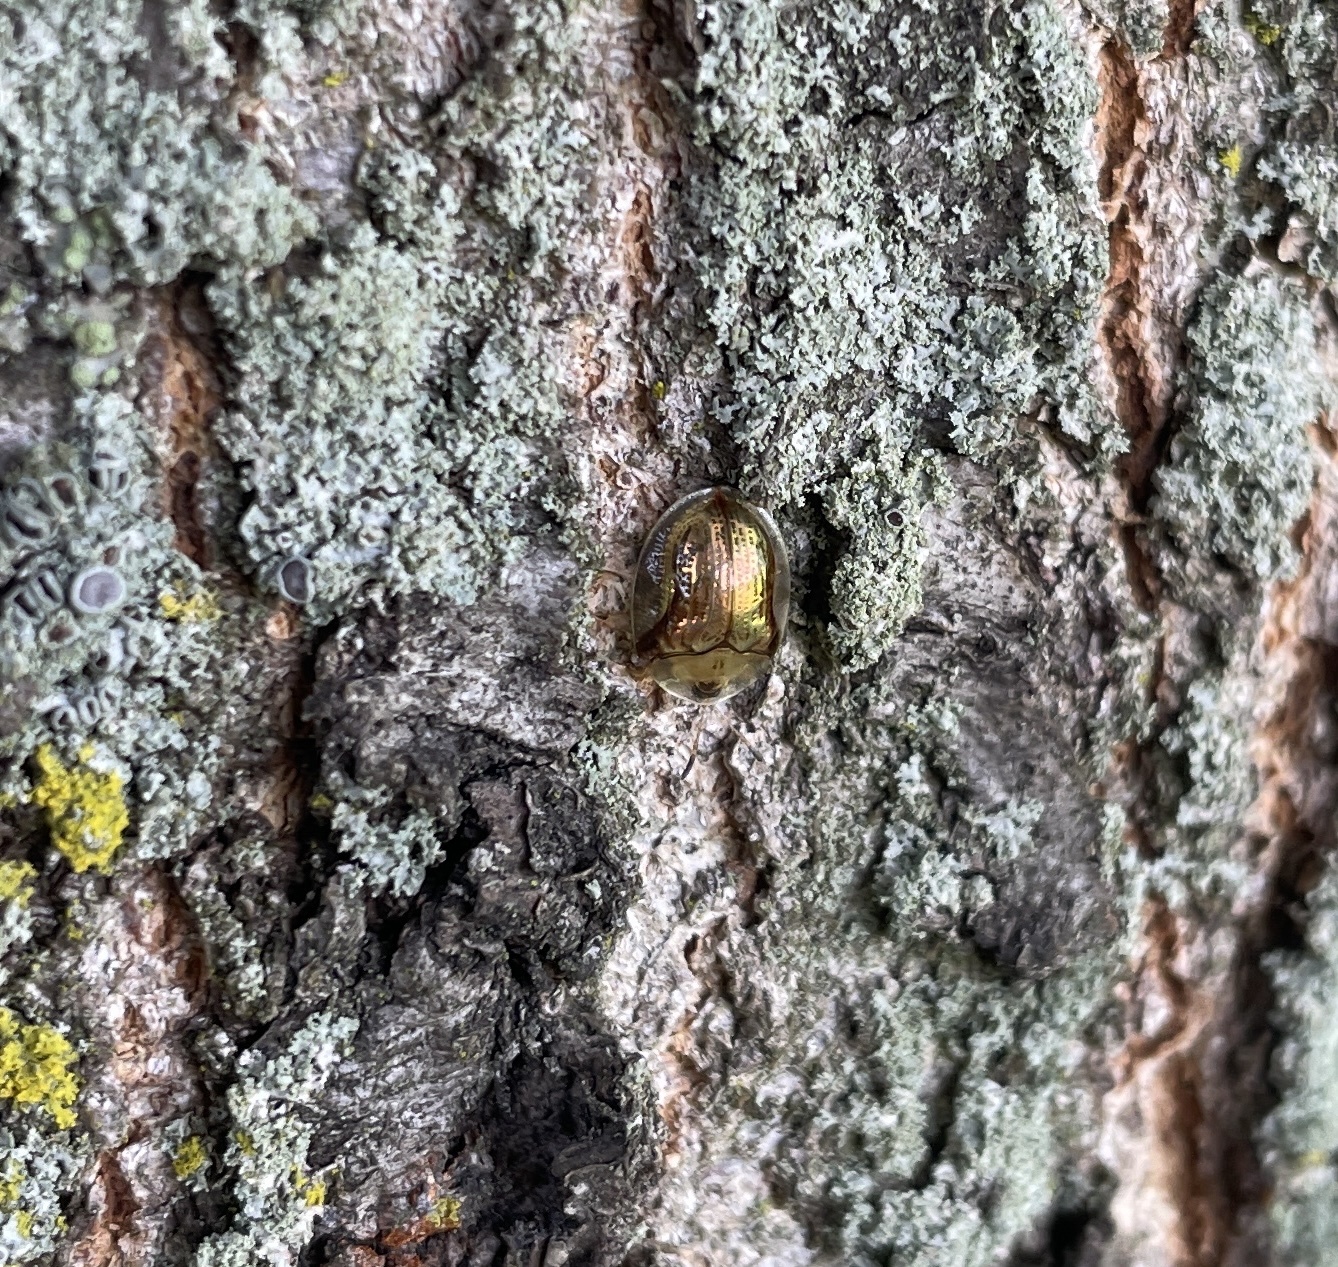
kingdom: Animalia
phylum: Arthropoda
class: Insecta
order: Coleoptera
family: Chrysomelidae
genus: Charidotella
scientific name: Charidotella sexpunctata
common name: Golden tortoise beetle
